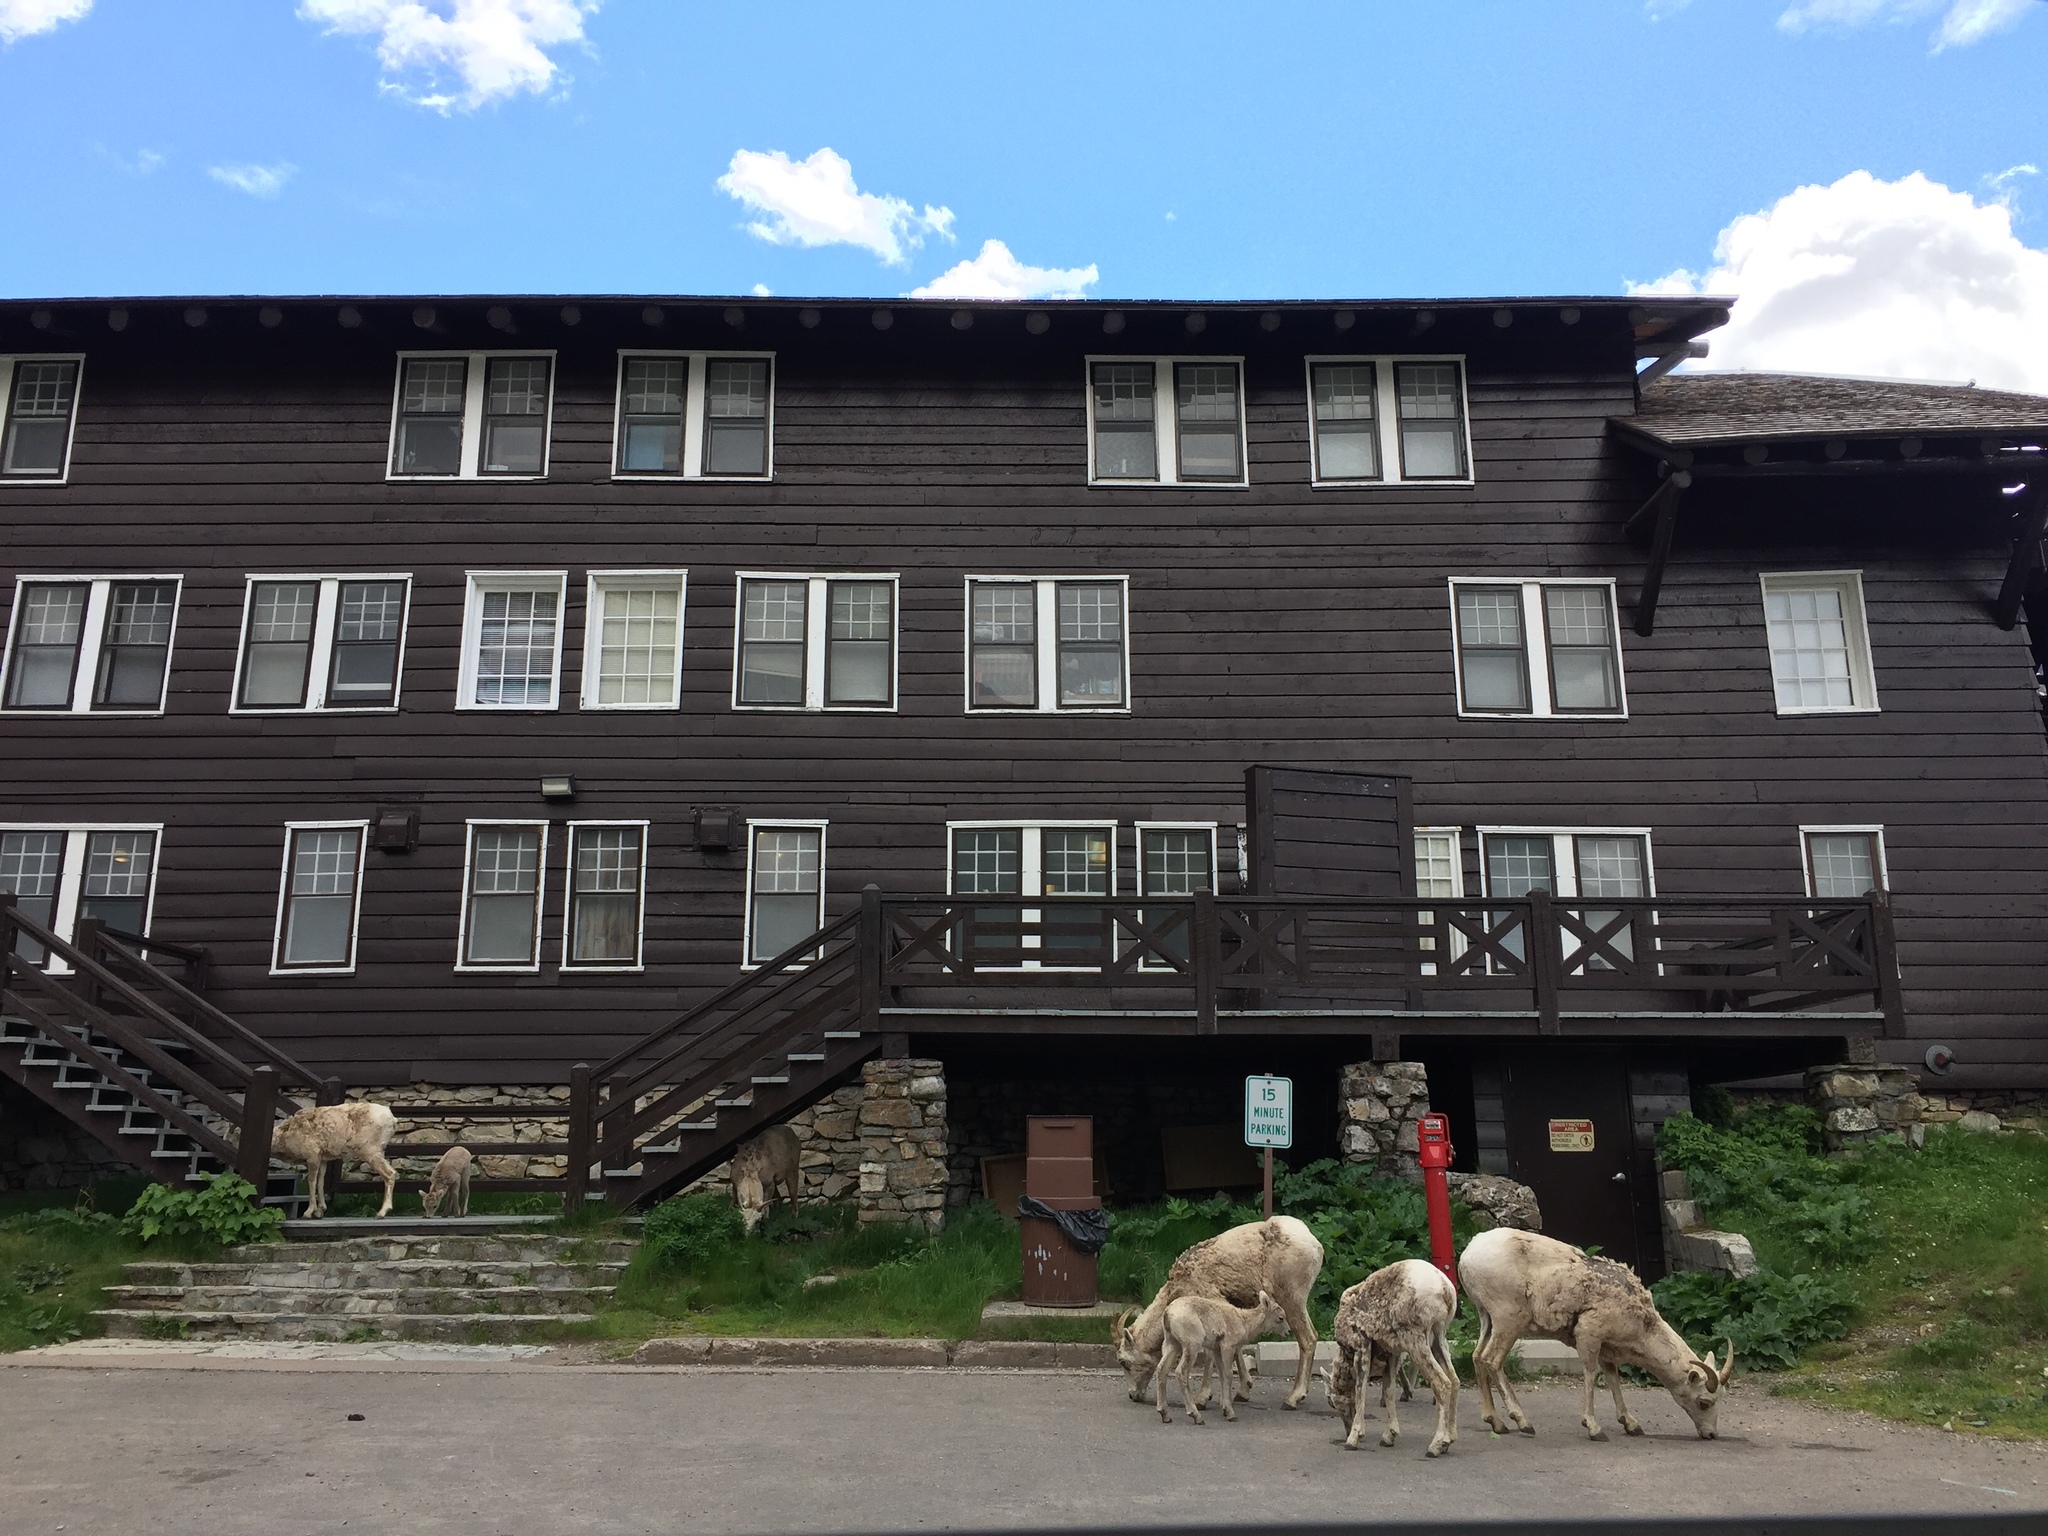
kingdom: Animalia
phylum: Chordata
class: Mammalia
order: Artiodactyla
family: Bovidae
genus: Ovis
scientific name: Ovis canadensis
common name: Bighorn sheep
